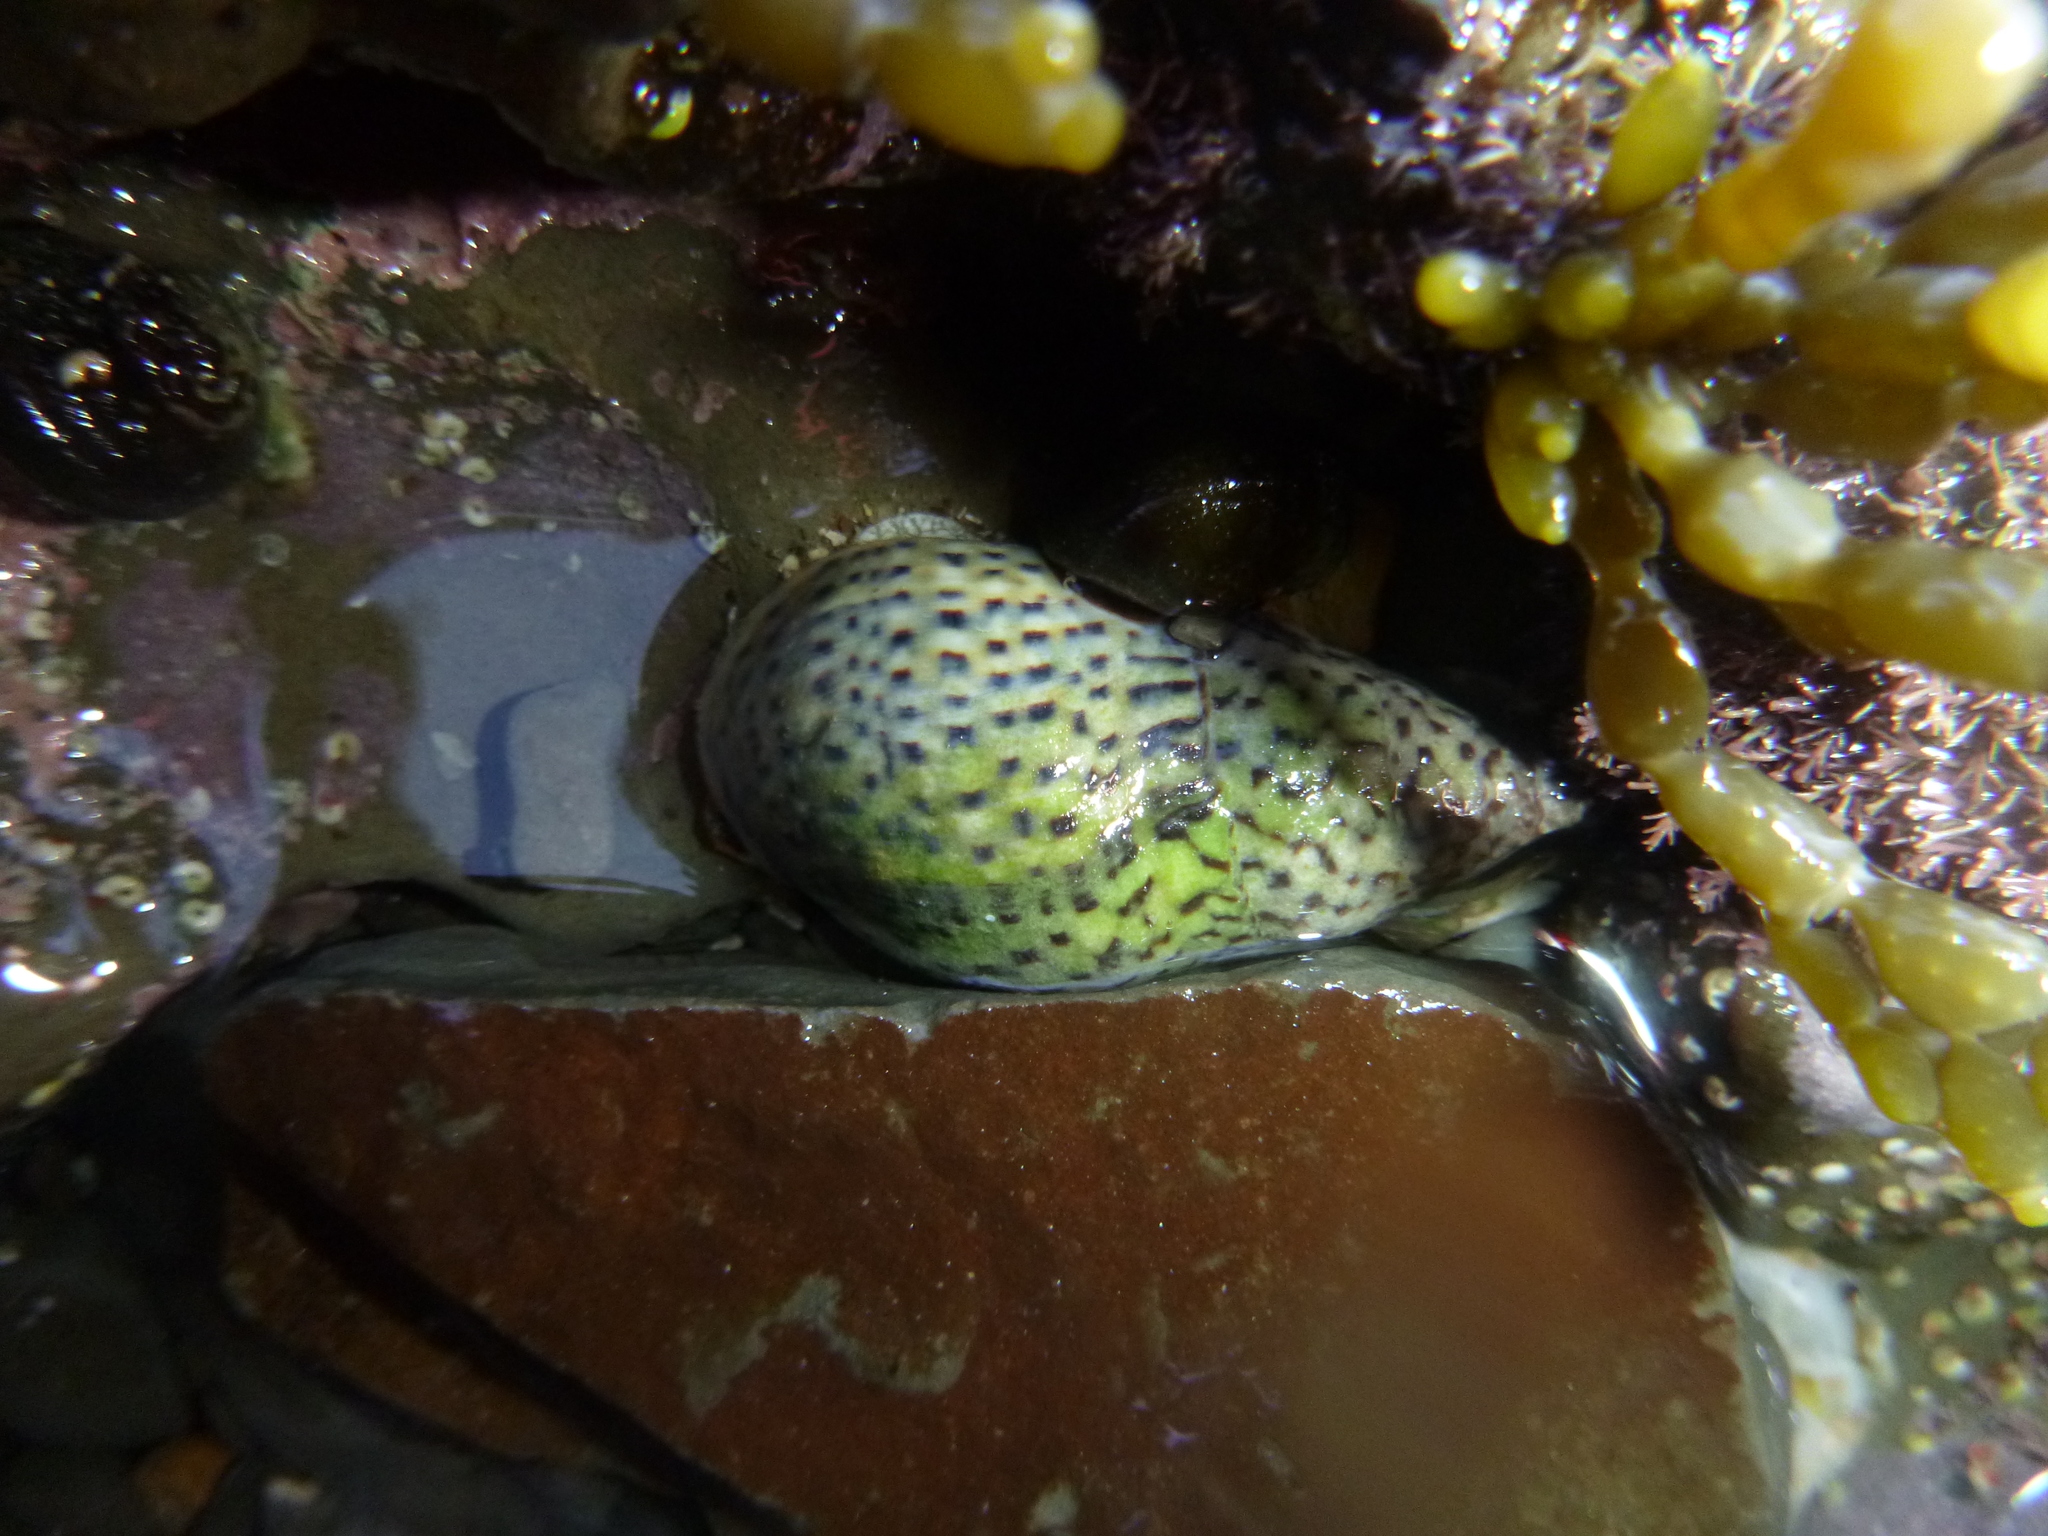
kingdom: Animalia
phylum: Mollusca
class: Gastropoda
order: Neogastropoda
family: Cominellidae
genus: Cominella
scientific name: Cominella maculosa
